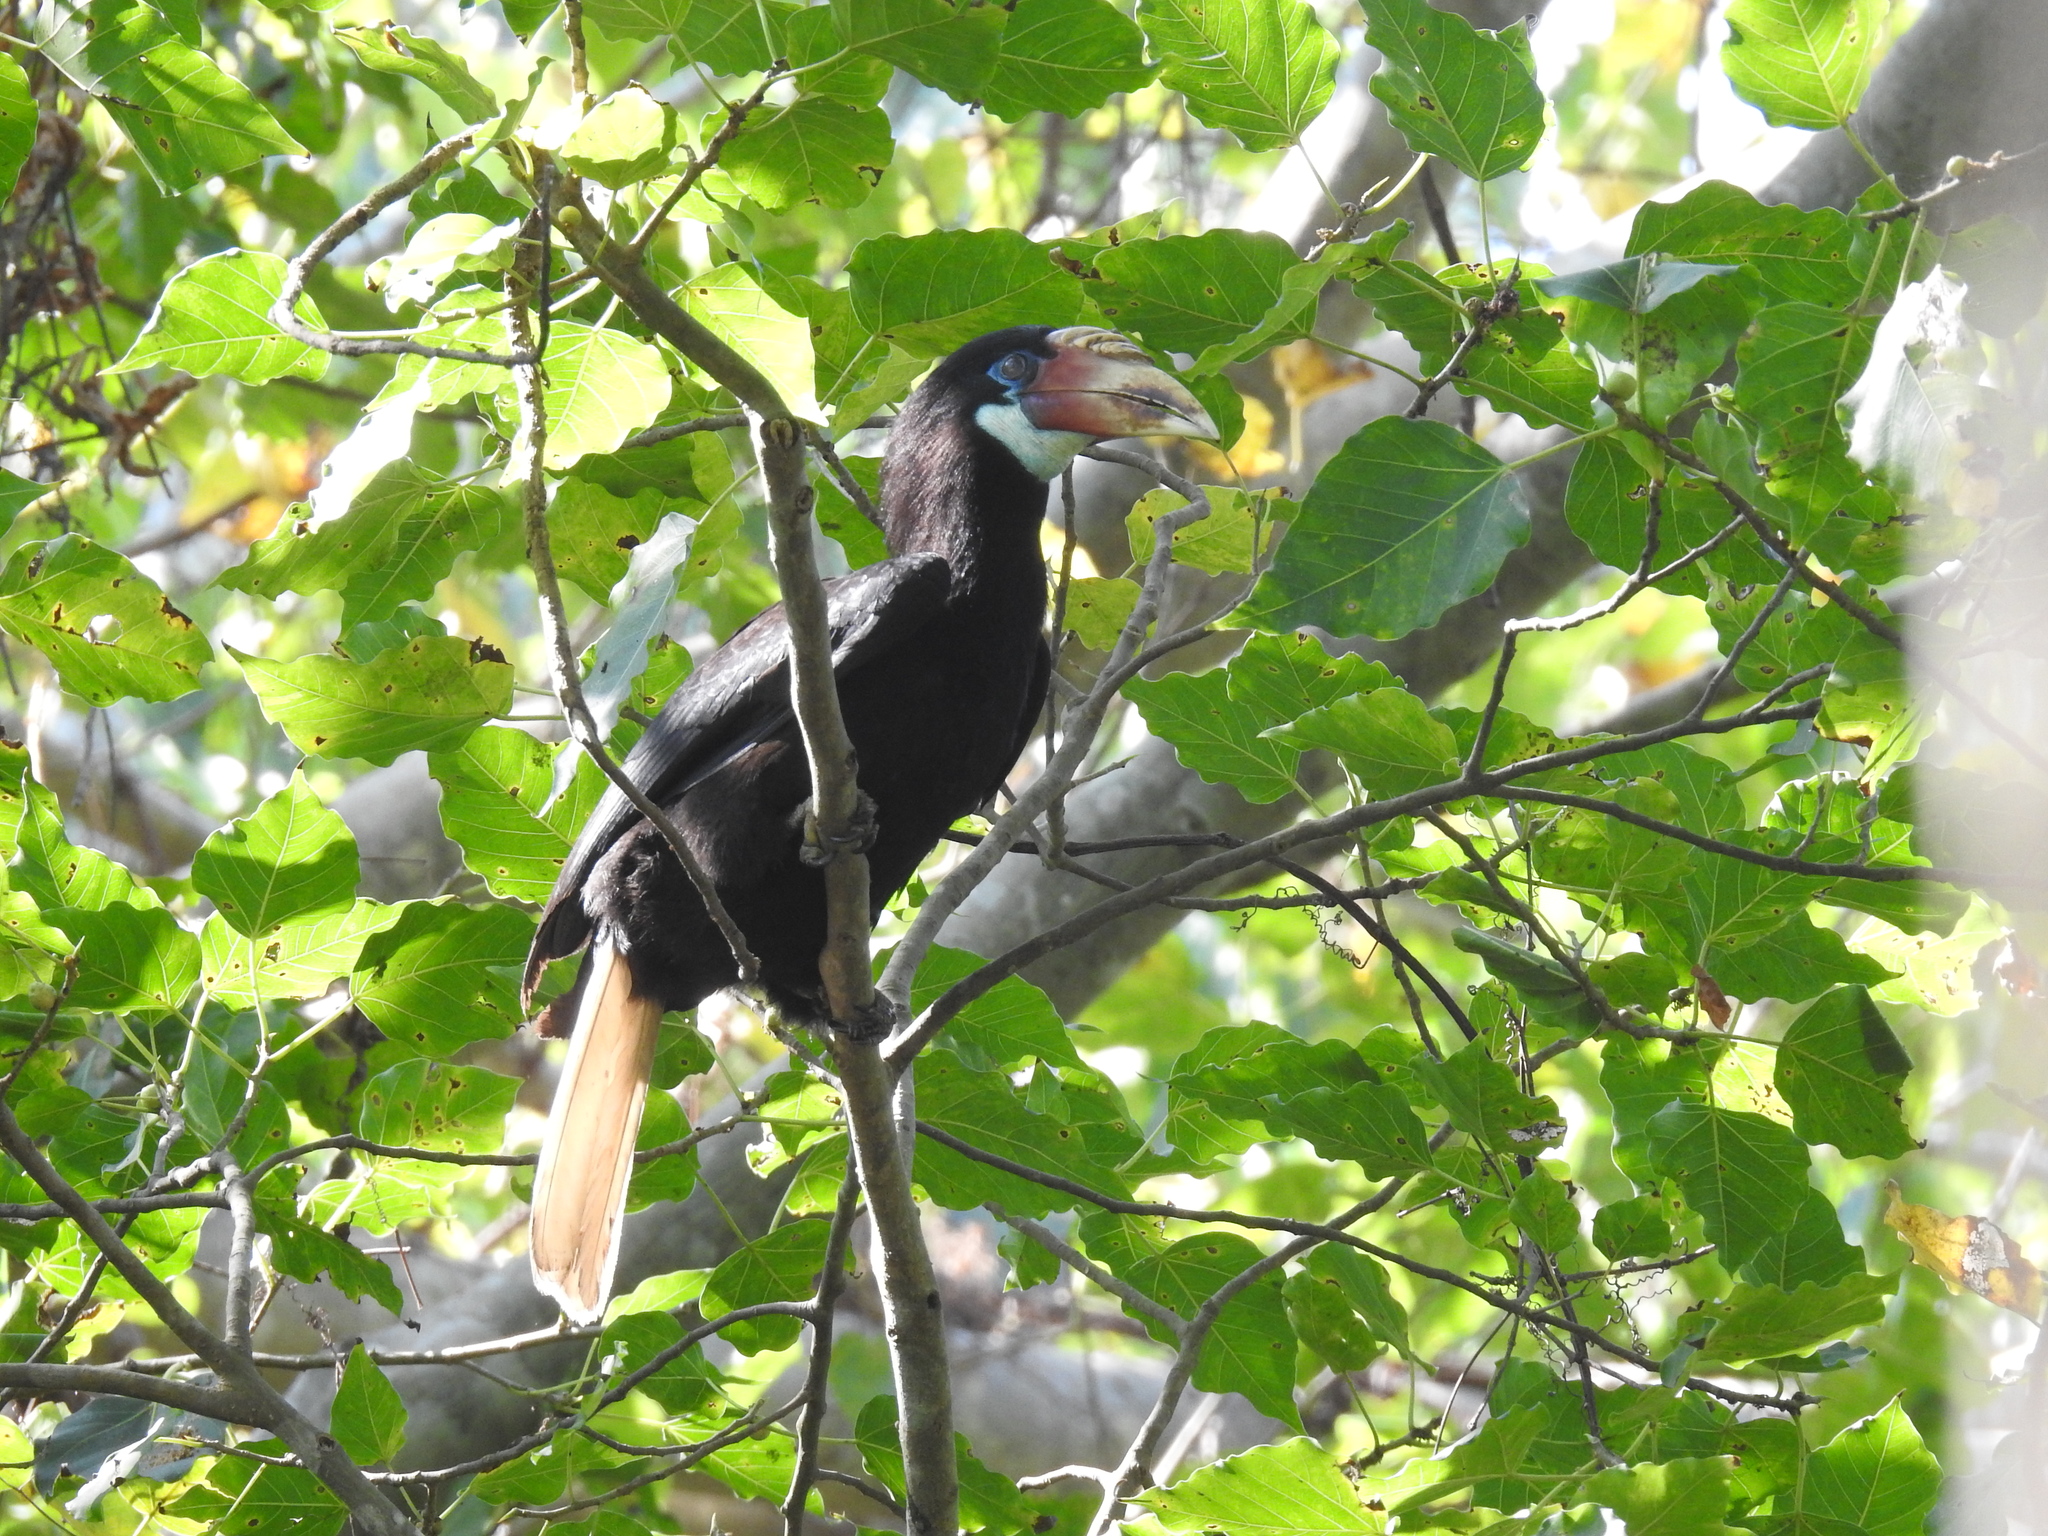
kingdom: Animalia
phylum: Chordata
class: Aves
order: Bucerotiformes
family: Bucerotidae
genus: Rhyticeros
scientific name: Rhyticeros narcondami
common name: Narcondam hornbill
